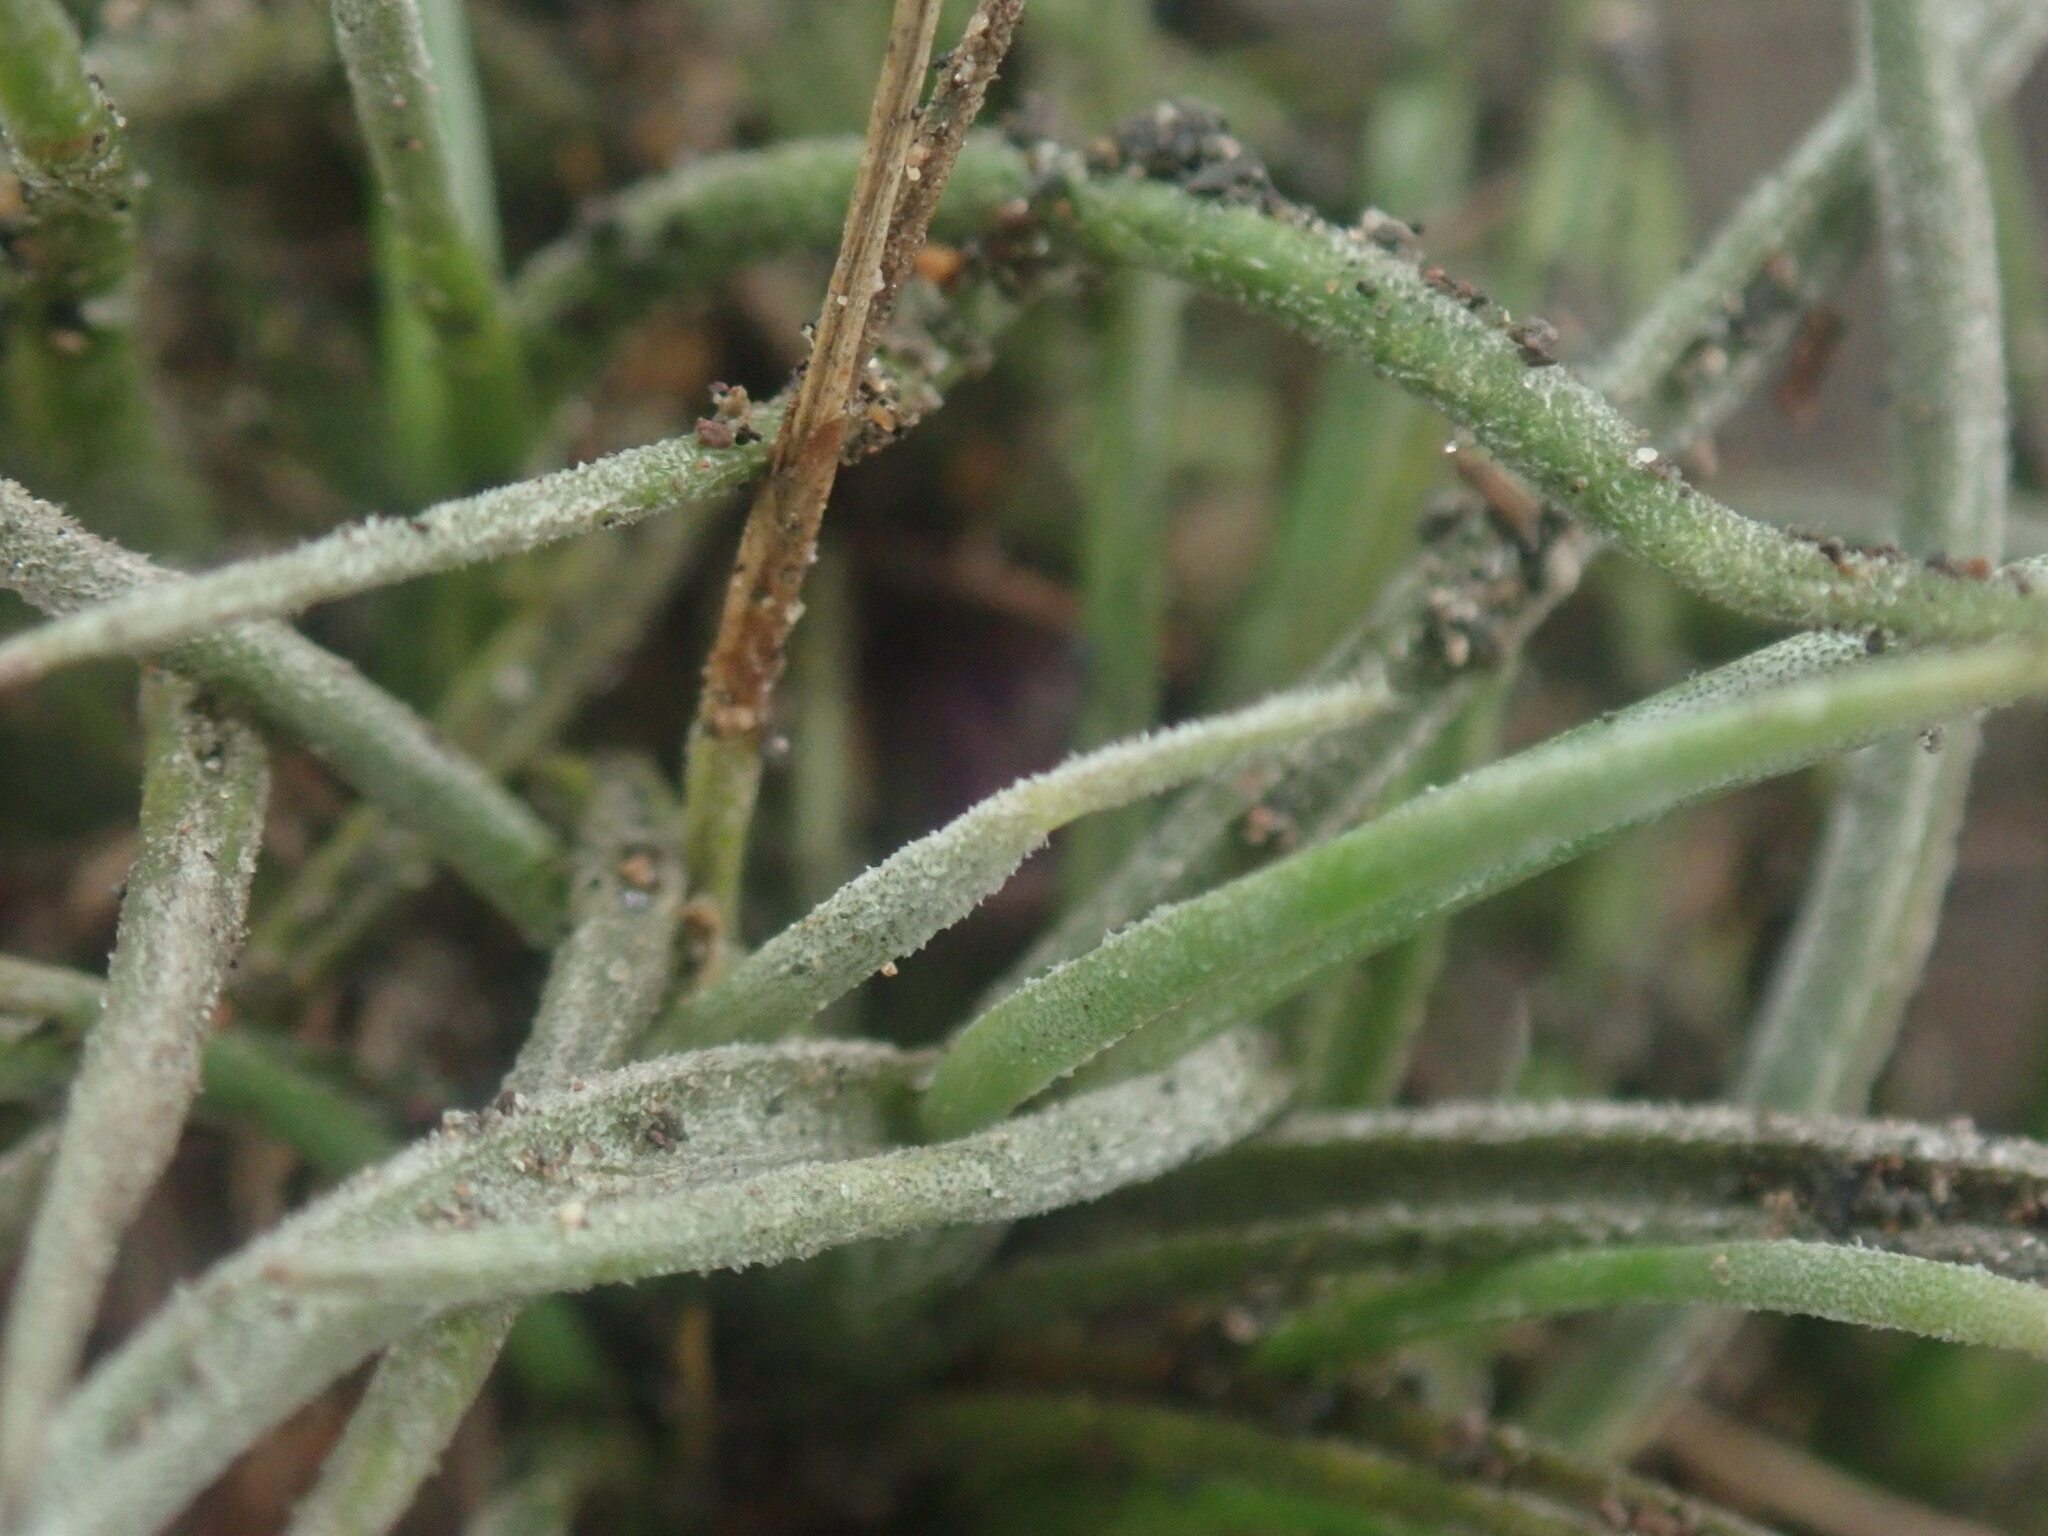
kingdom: Plantae
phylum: Tracheophyta
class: Liliopsida
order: Poales
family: Bromeliaceae
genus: Tillandsia
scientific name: Tillandsia recurvata
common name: Small ballmoss
